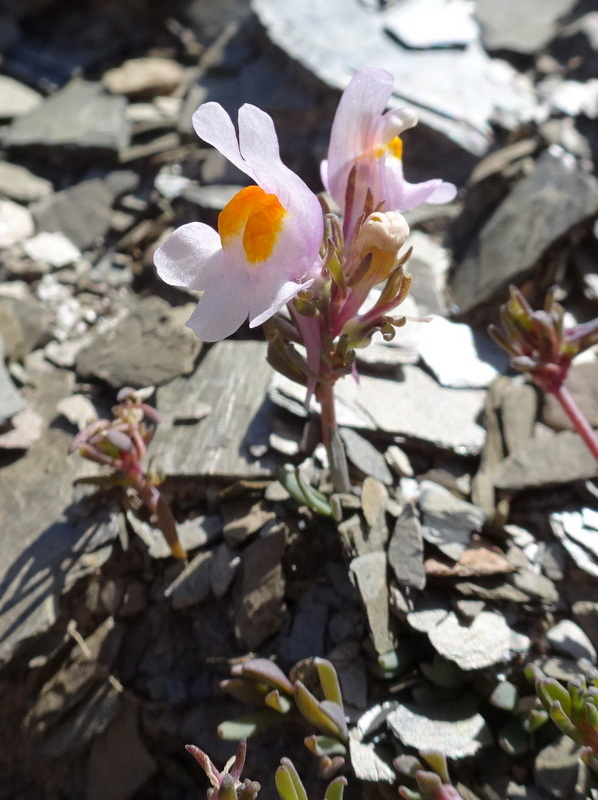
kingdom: Plantae
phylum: Tracheophyta
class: Magnoliopsida
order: Lamiales
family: Plantaginaceae
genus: Linaria
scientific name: Linaria alpina
